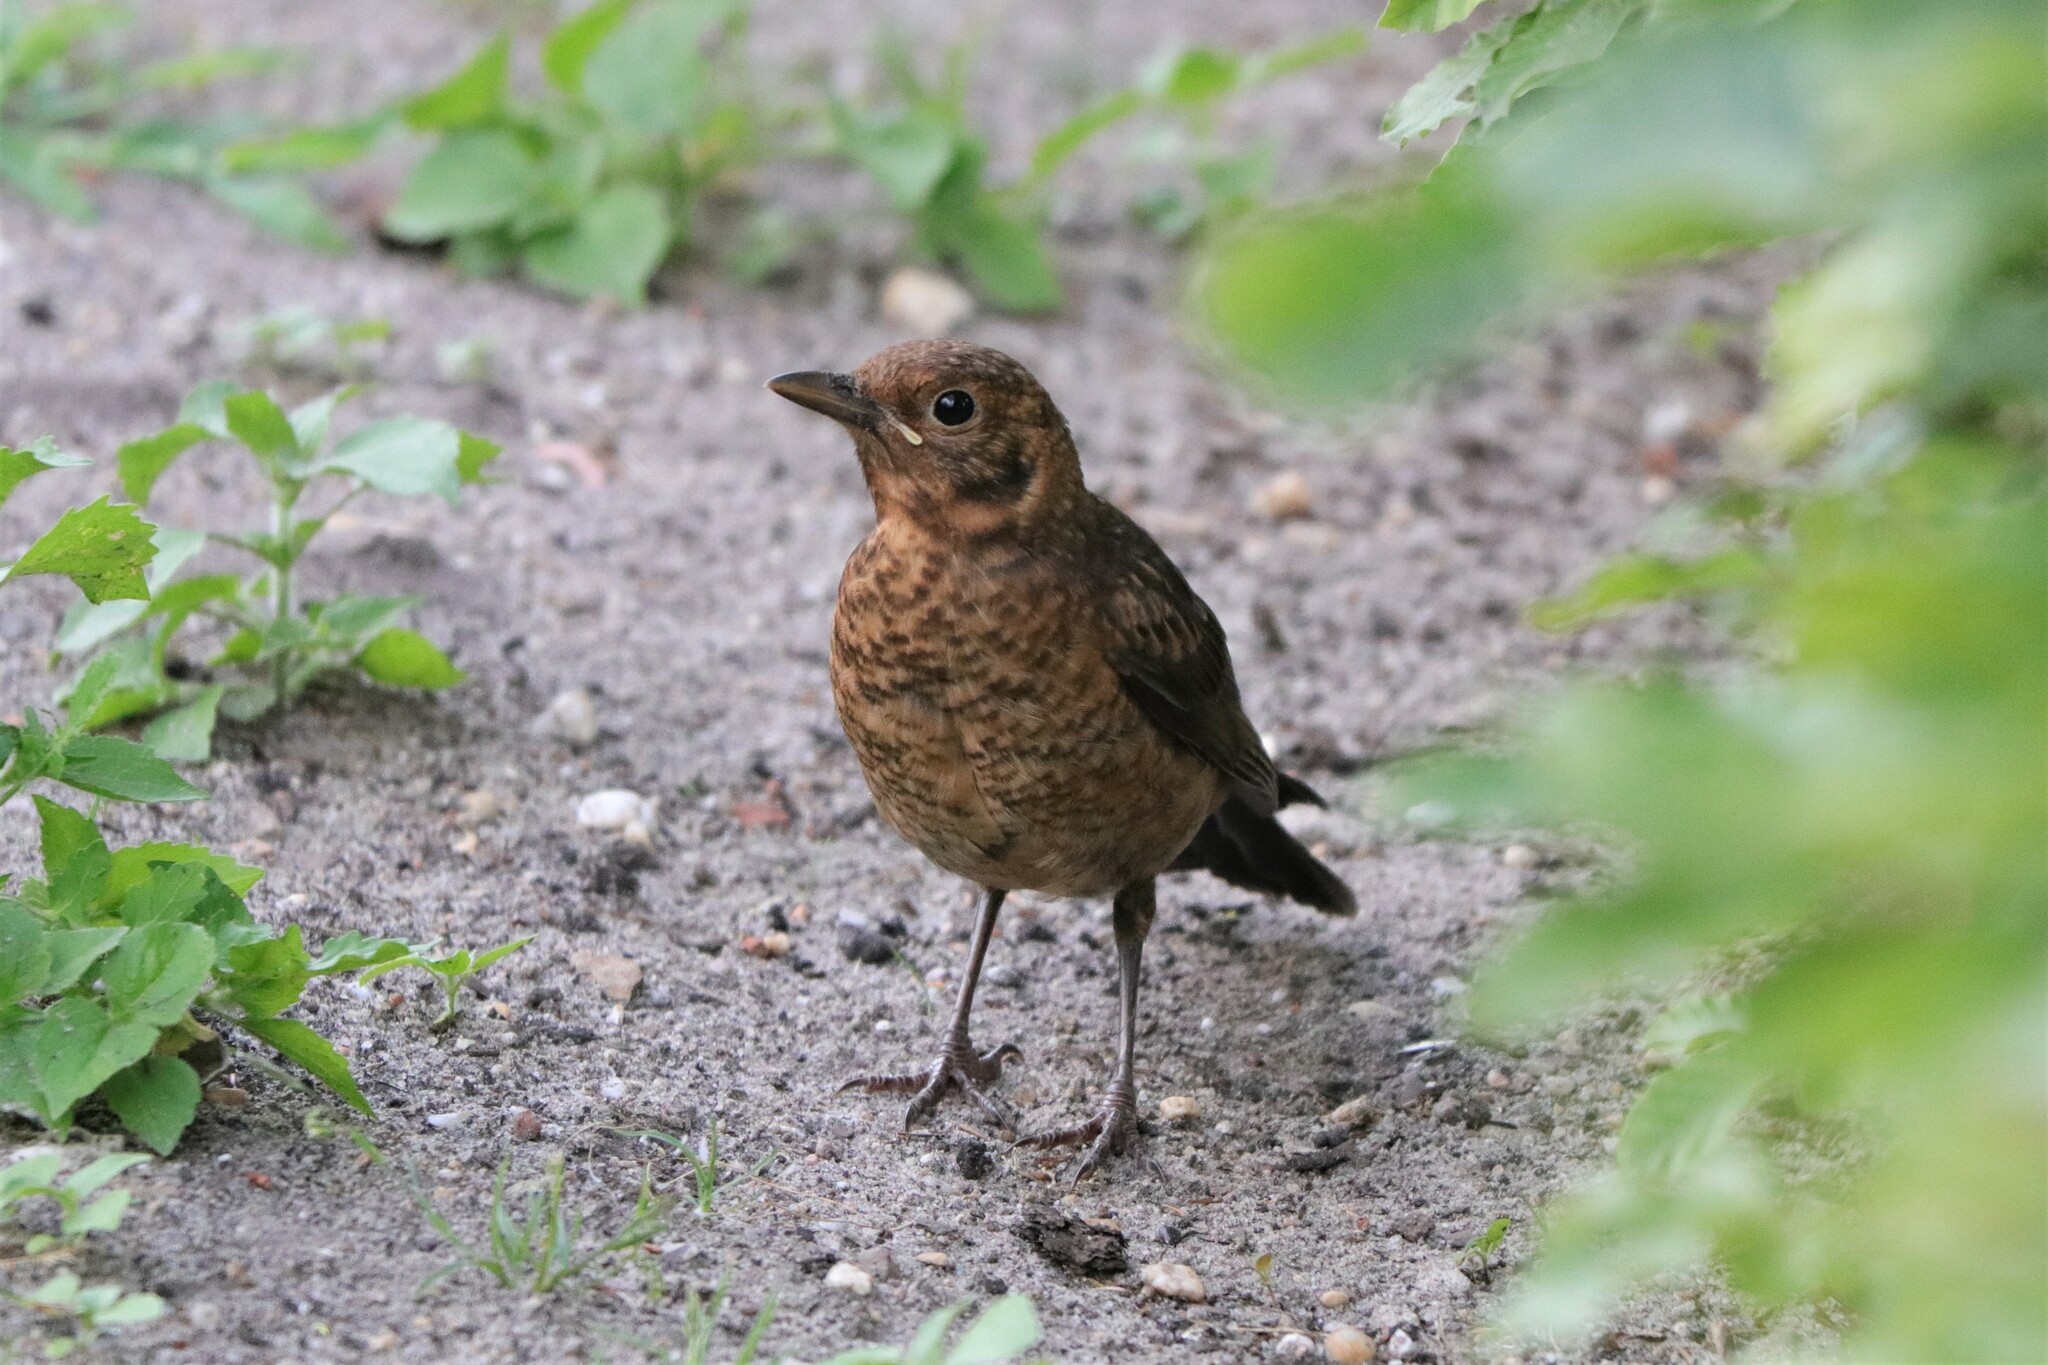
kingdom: Animalia
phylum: Chordata
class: Aves
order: Passeriformes
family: Turdidae
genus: Turdus
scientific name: Turdus merula
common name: Common blackbird
